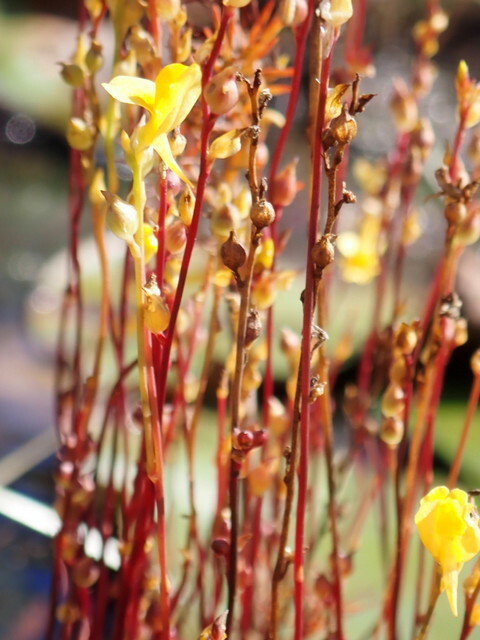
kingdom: Plantae
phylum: Tracheophyta
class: Magnoliopsida
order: Lamiales
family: Lentibulariaceae
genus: Utricularia
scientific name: Utricularia juncea
